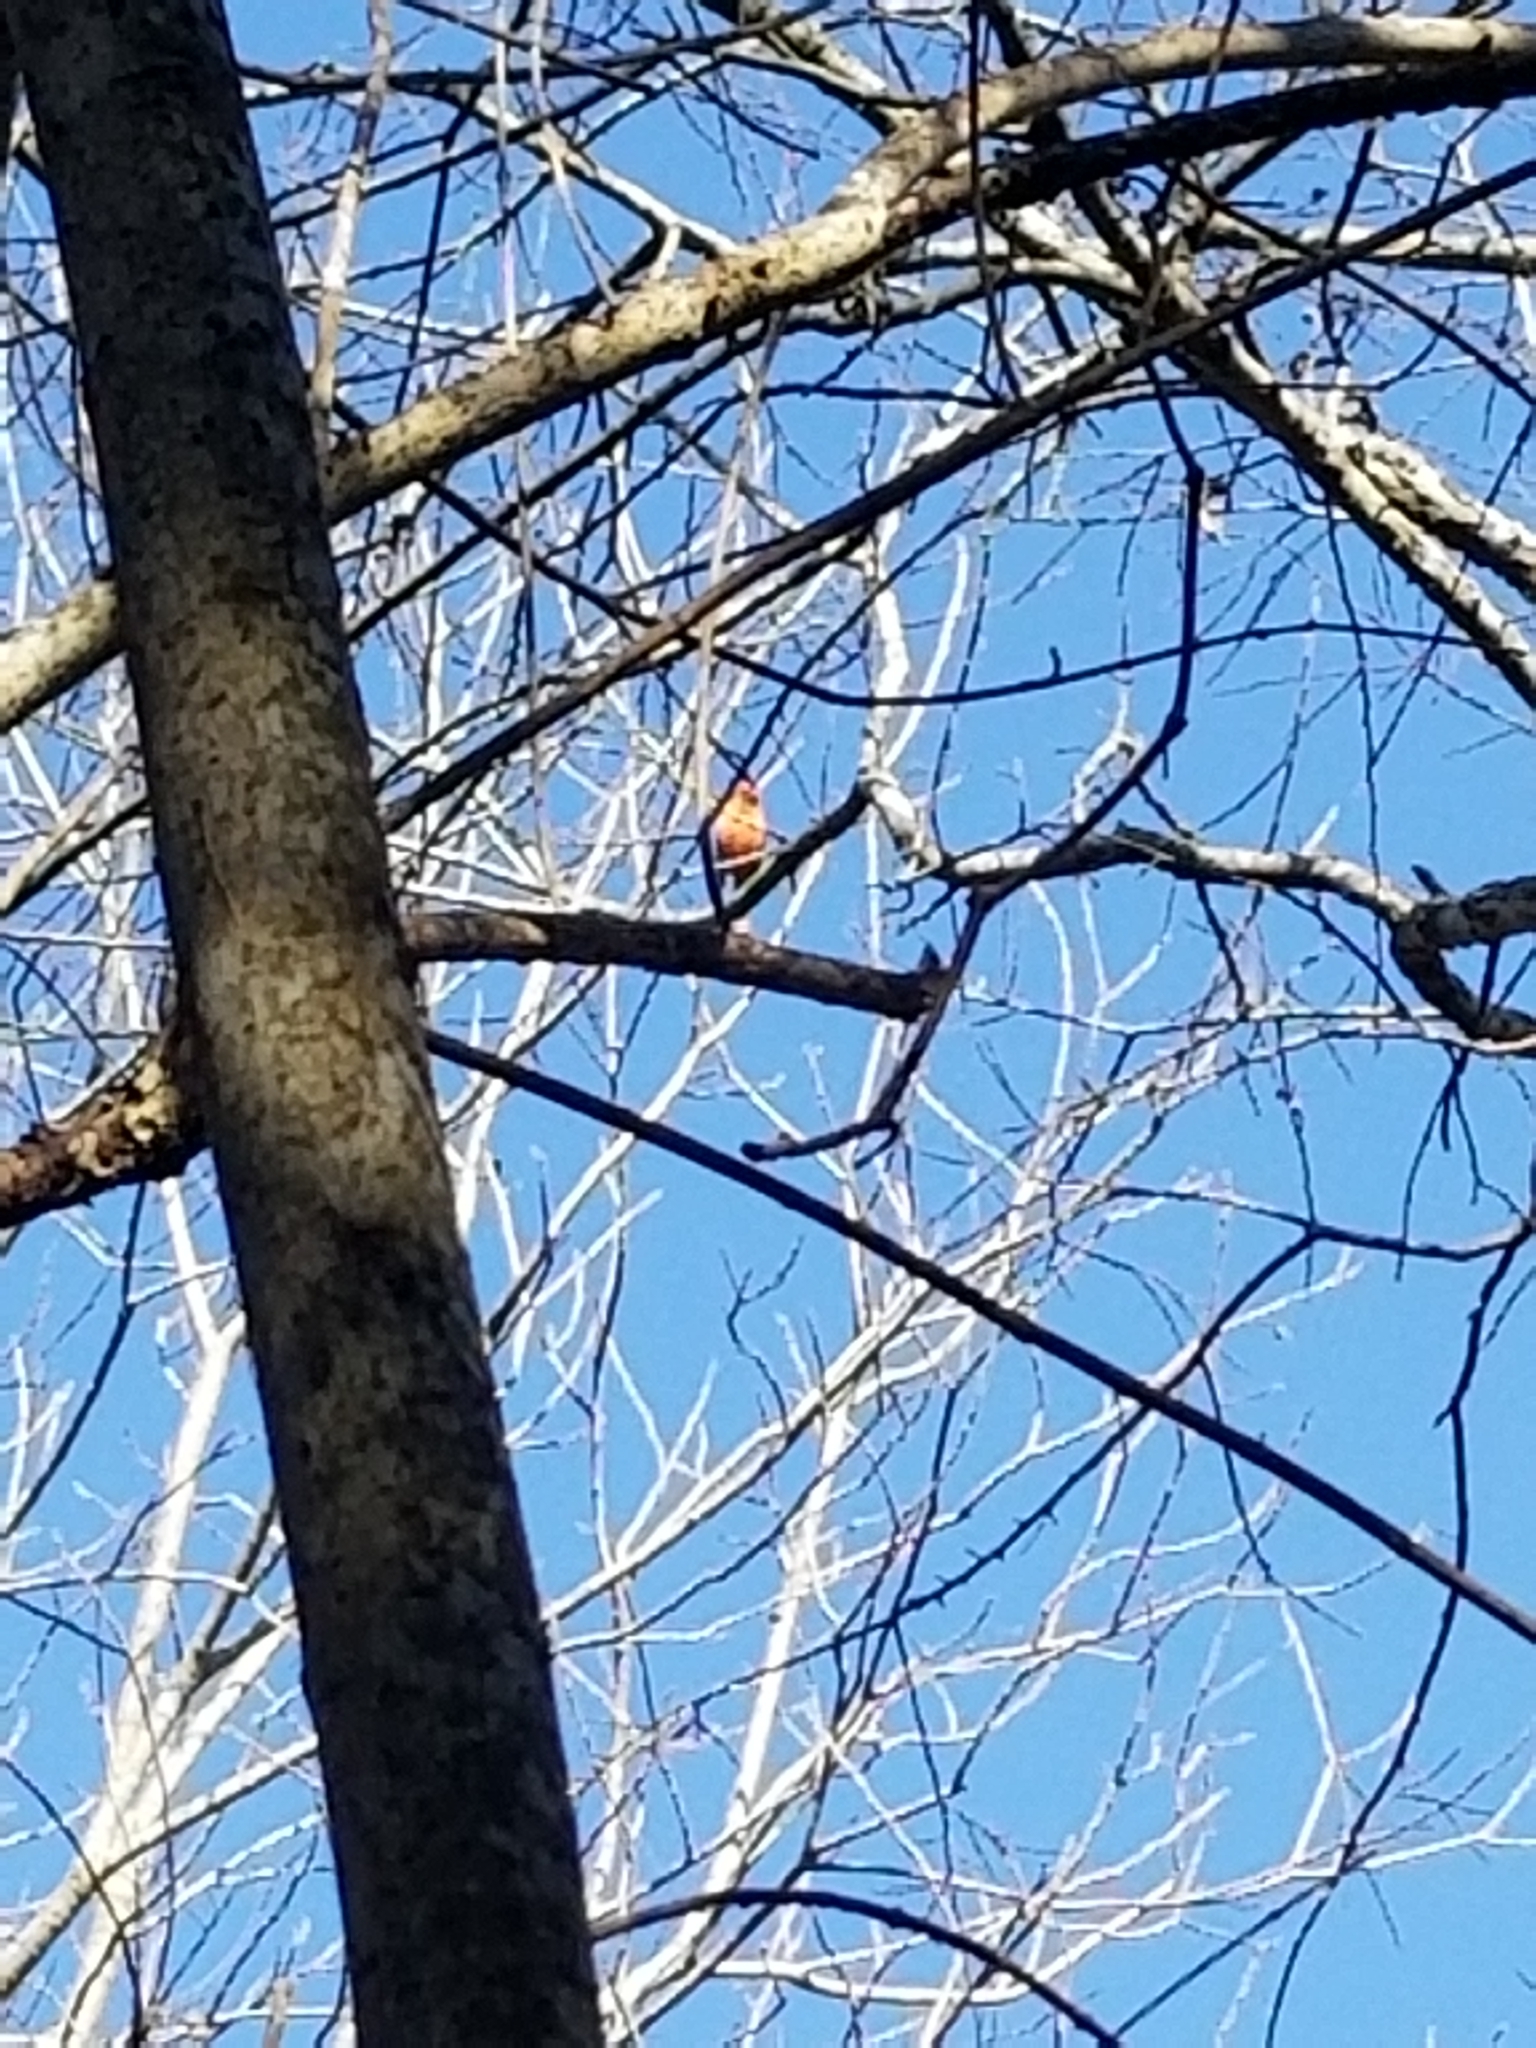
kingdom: Animalia
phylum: Chordata
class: Aves
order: Passeriformes
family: Cardinalidae
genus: Cardinalis
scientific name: Cardinalis cardinalis
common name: Northern cardinal
